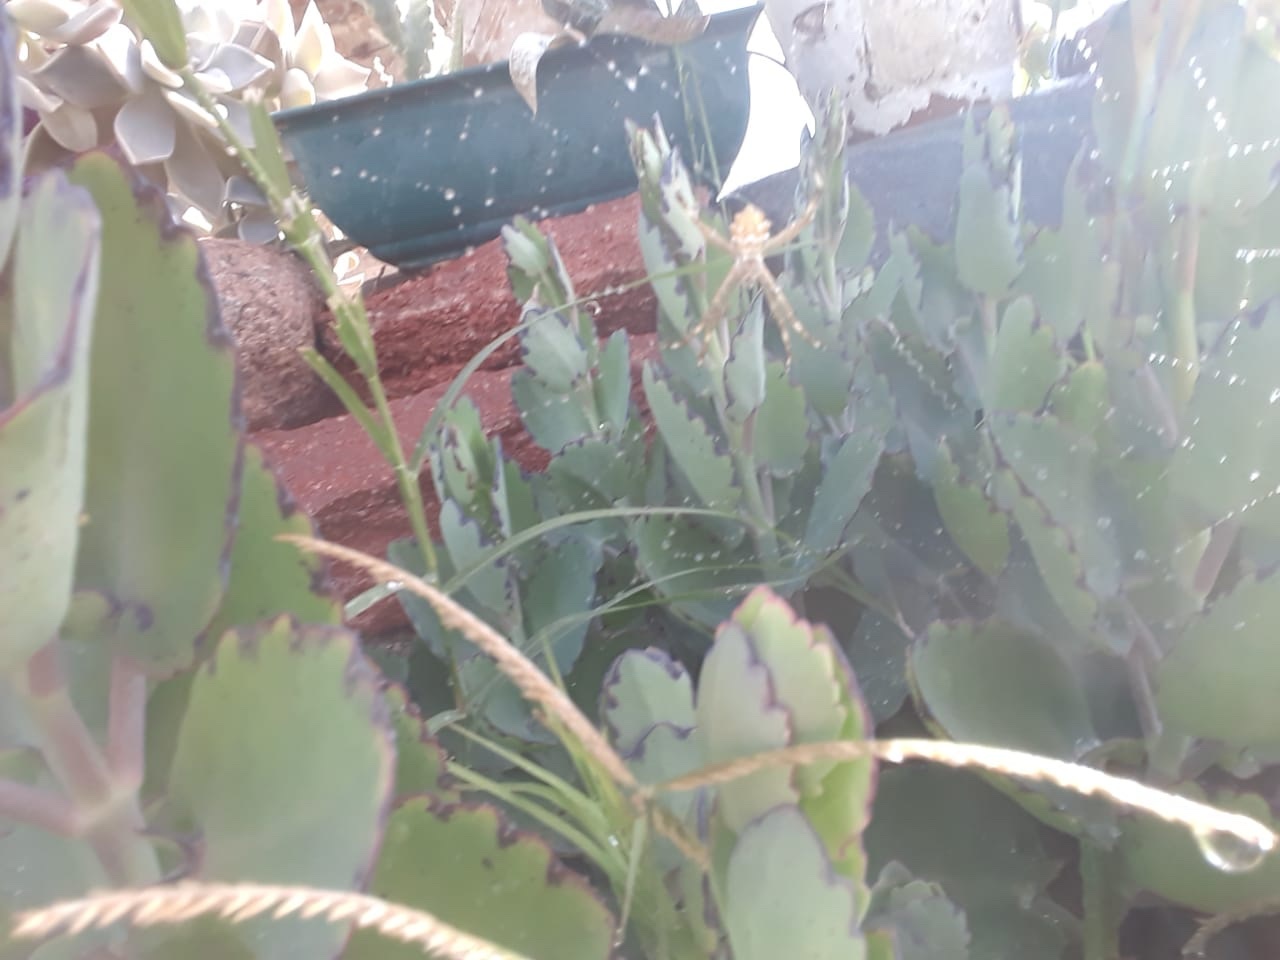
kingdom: Animalia
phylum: Arthropoda
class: Arachnida
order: Araneae
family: Araneidae
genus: Argiope
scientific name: Argiope argentata
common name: Orb weavers
